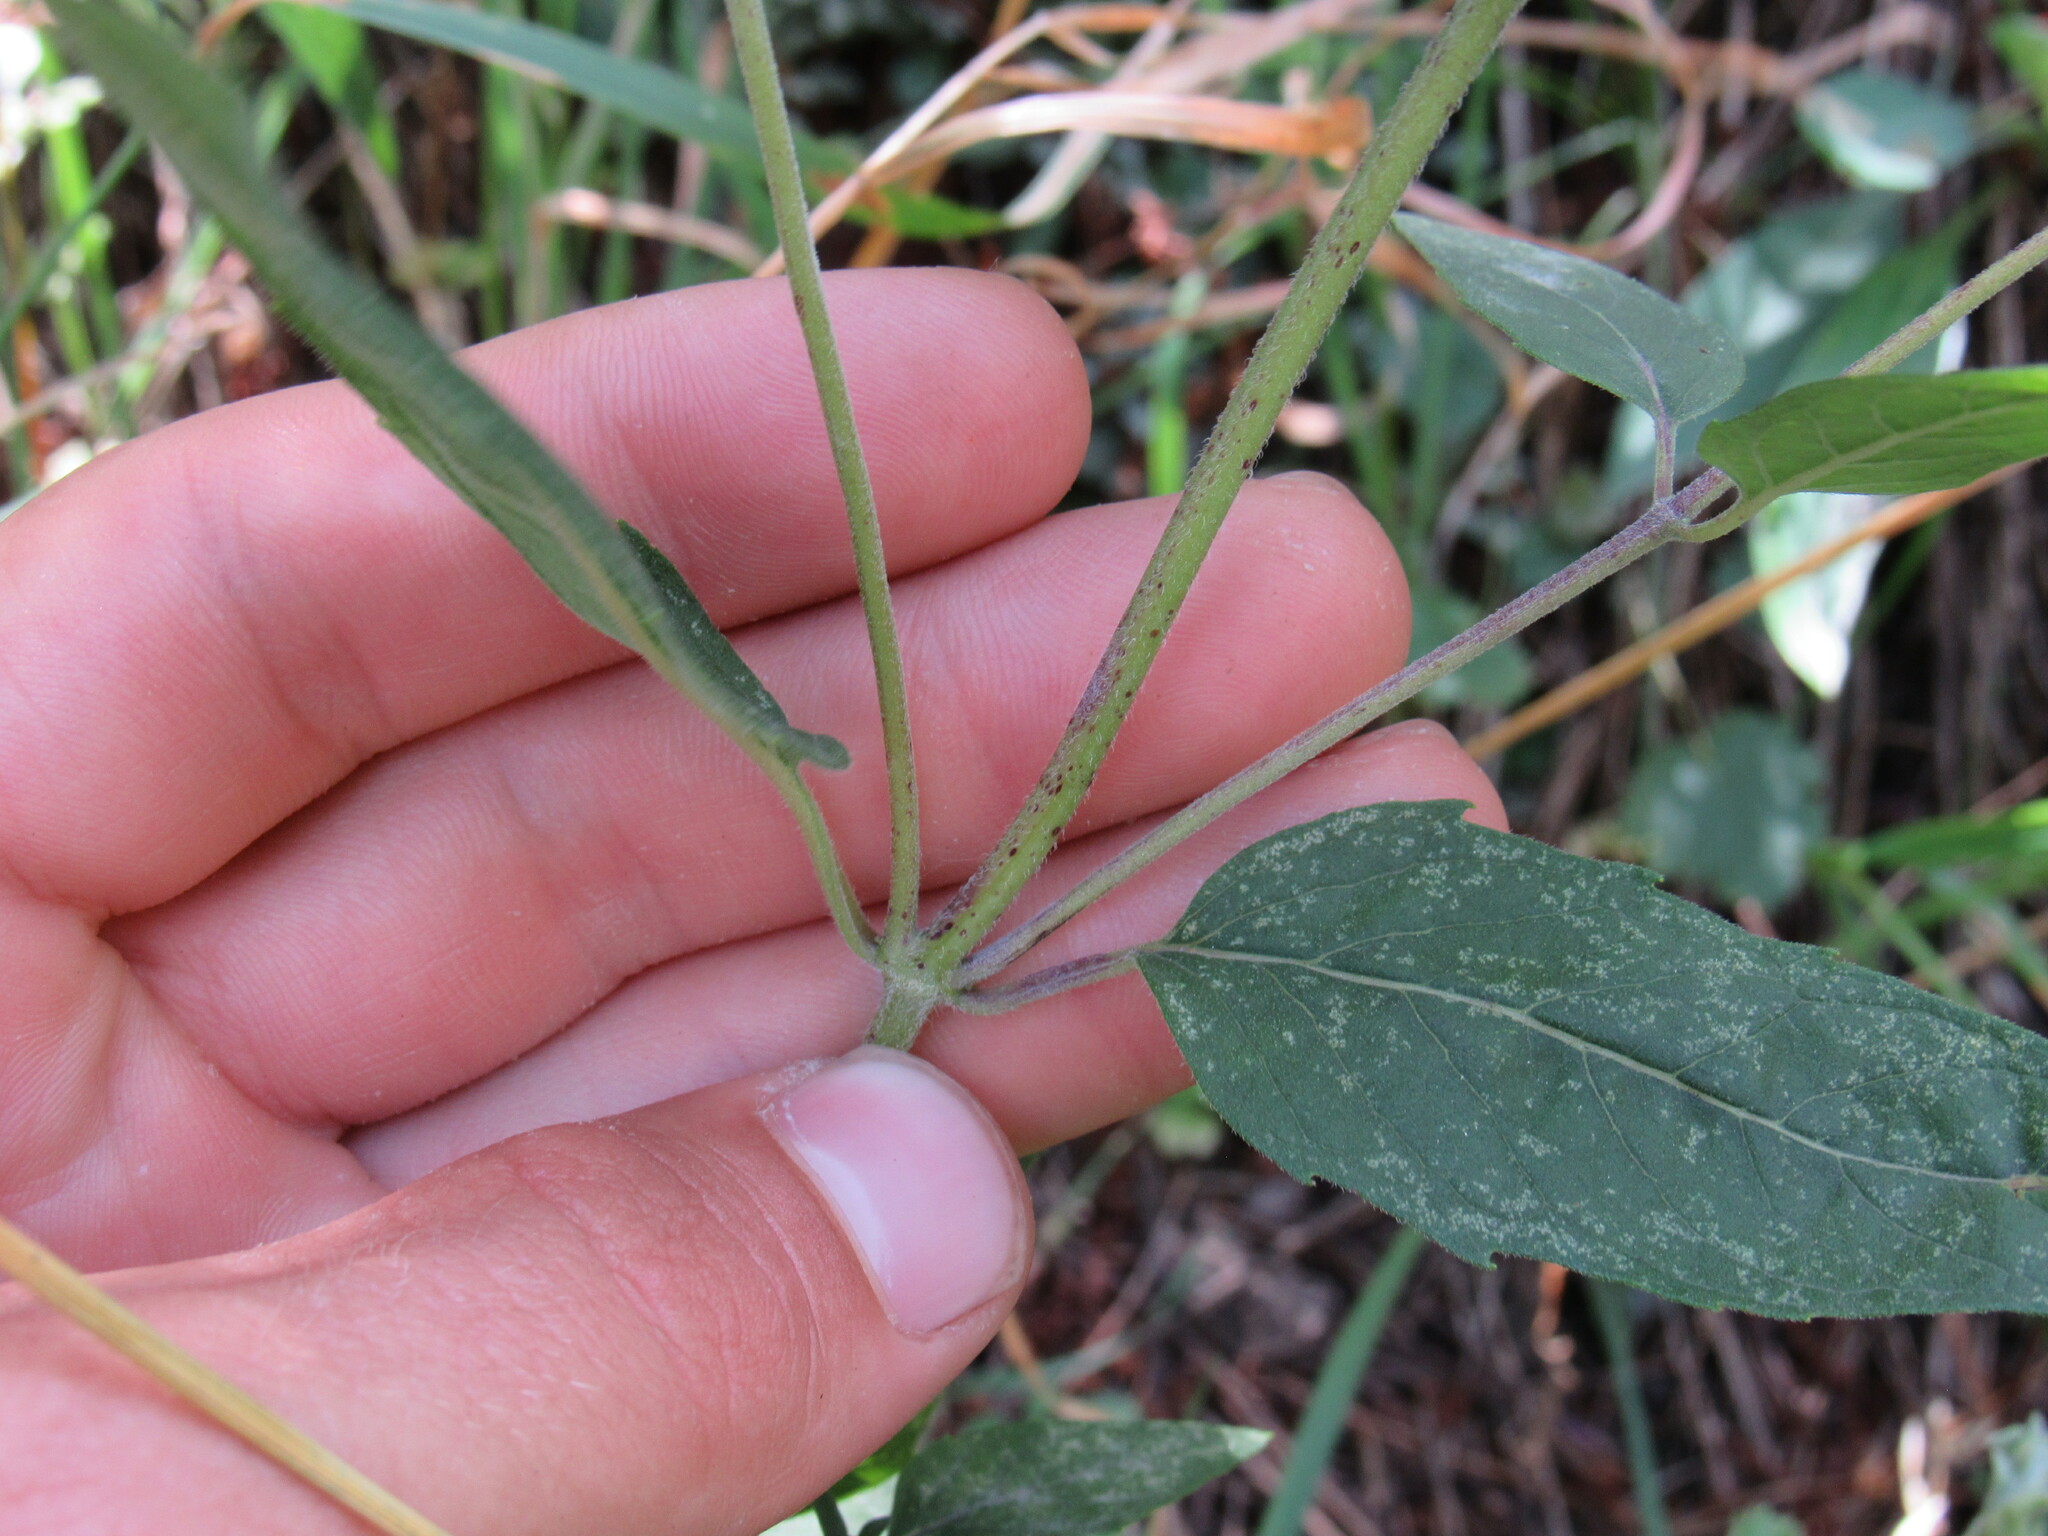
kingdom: Plantae
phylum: Tracheophyta
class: Magnoliopsida
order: Lamiales
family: Lamiaceae
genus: Monarda
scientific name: Monarda fistulosa
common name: Purple beebalm
